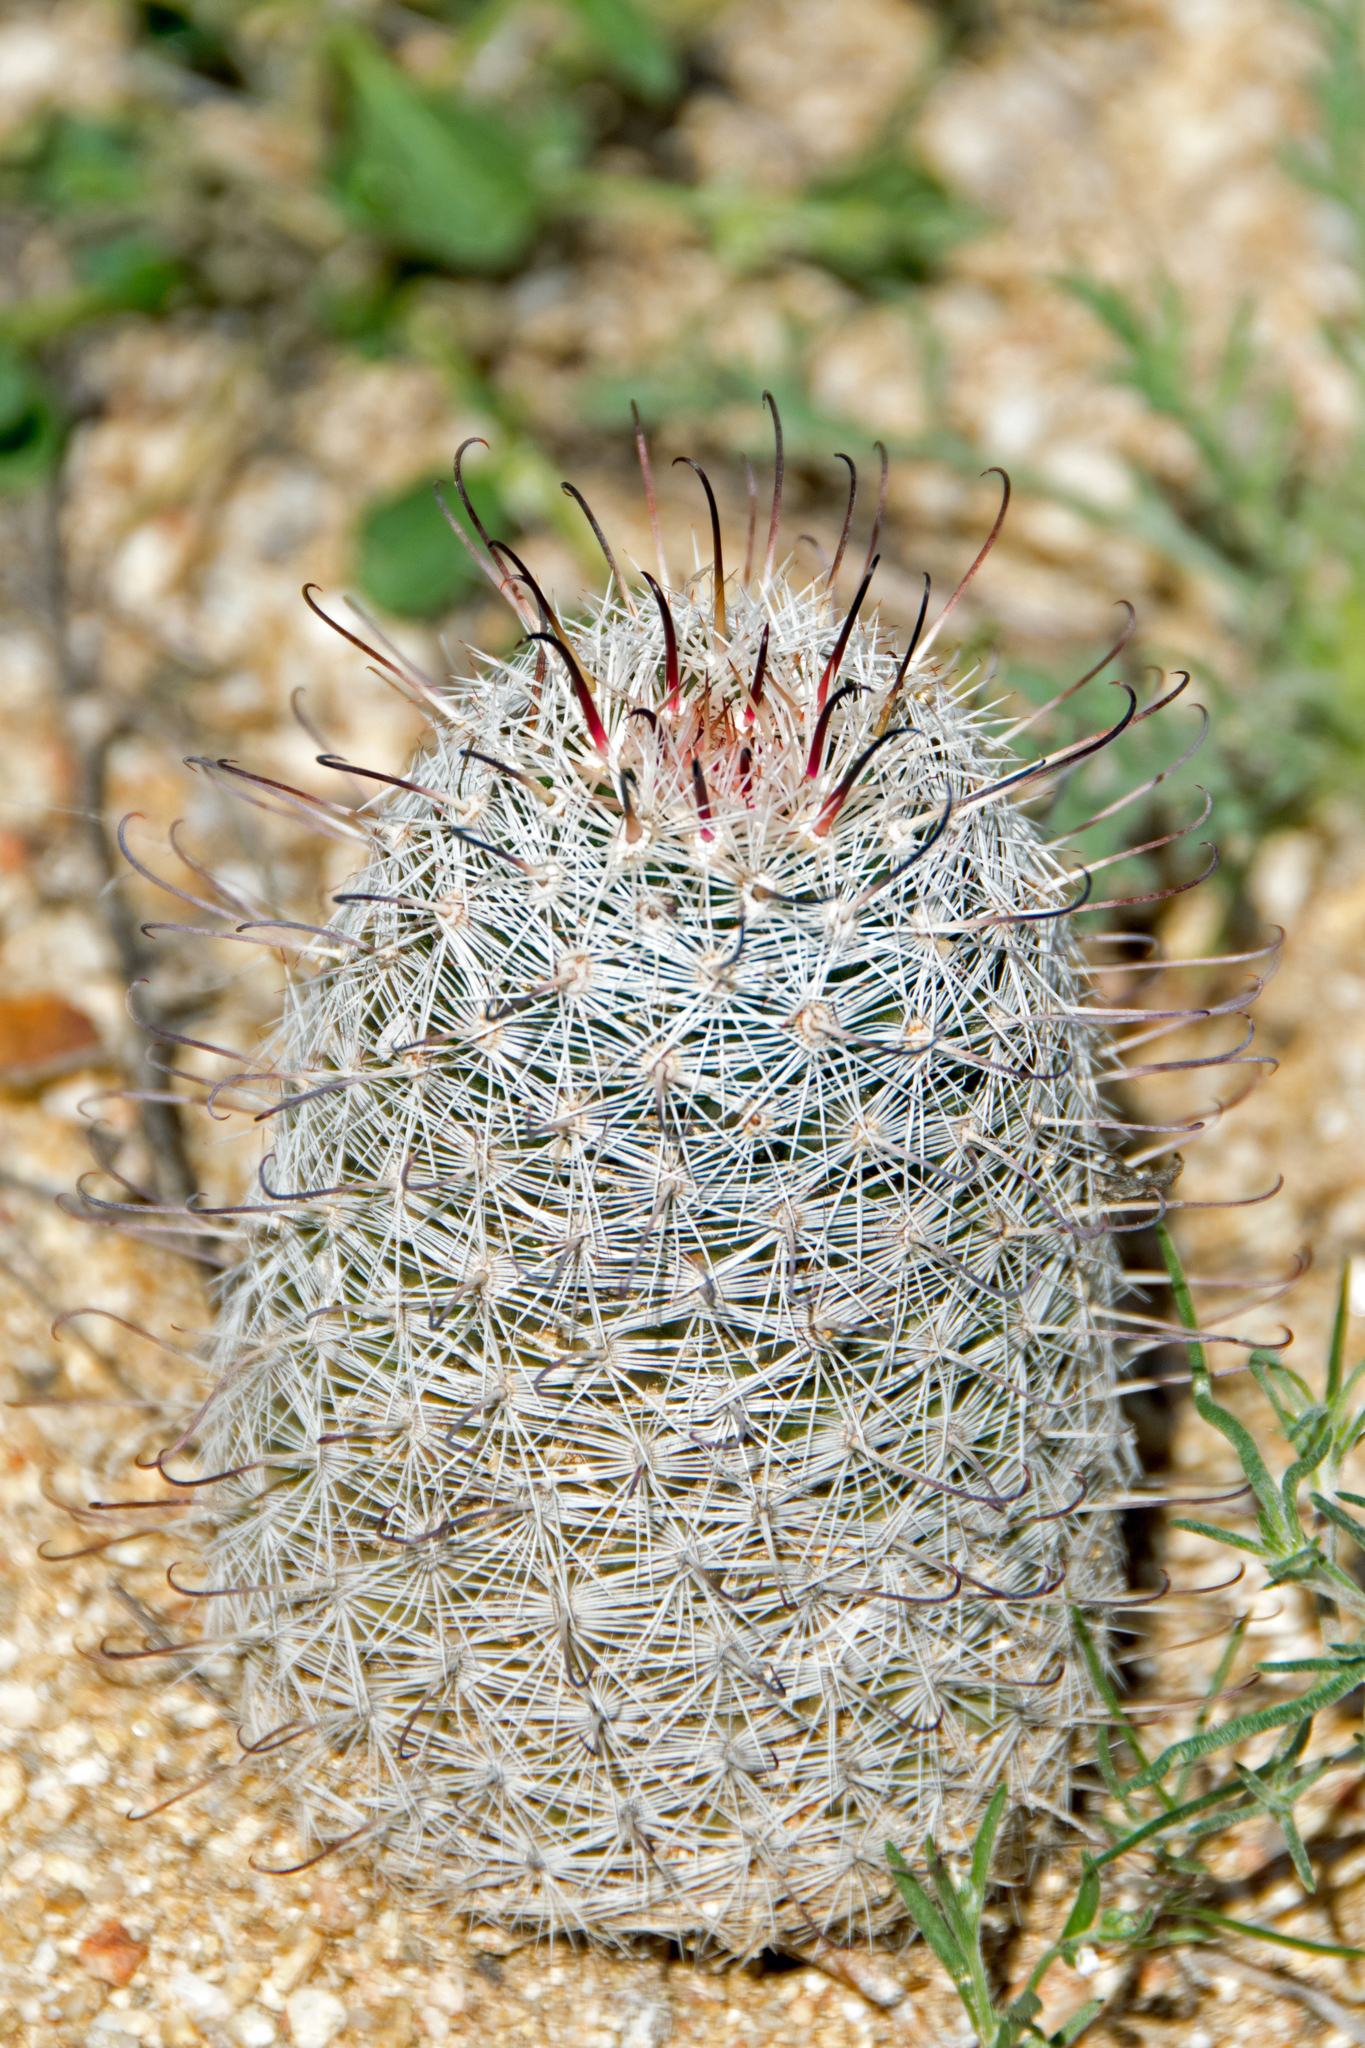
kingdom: Plantae
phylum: Tracheophyta
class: Magnoliopsida
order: Caryophyllales
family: Cactaceae
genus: Cochemiea
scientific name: Cochemiea grahamii
